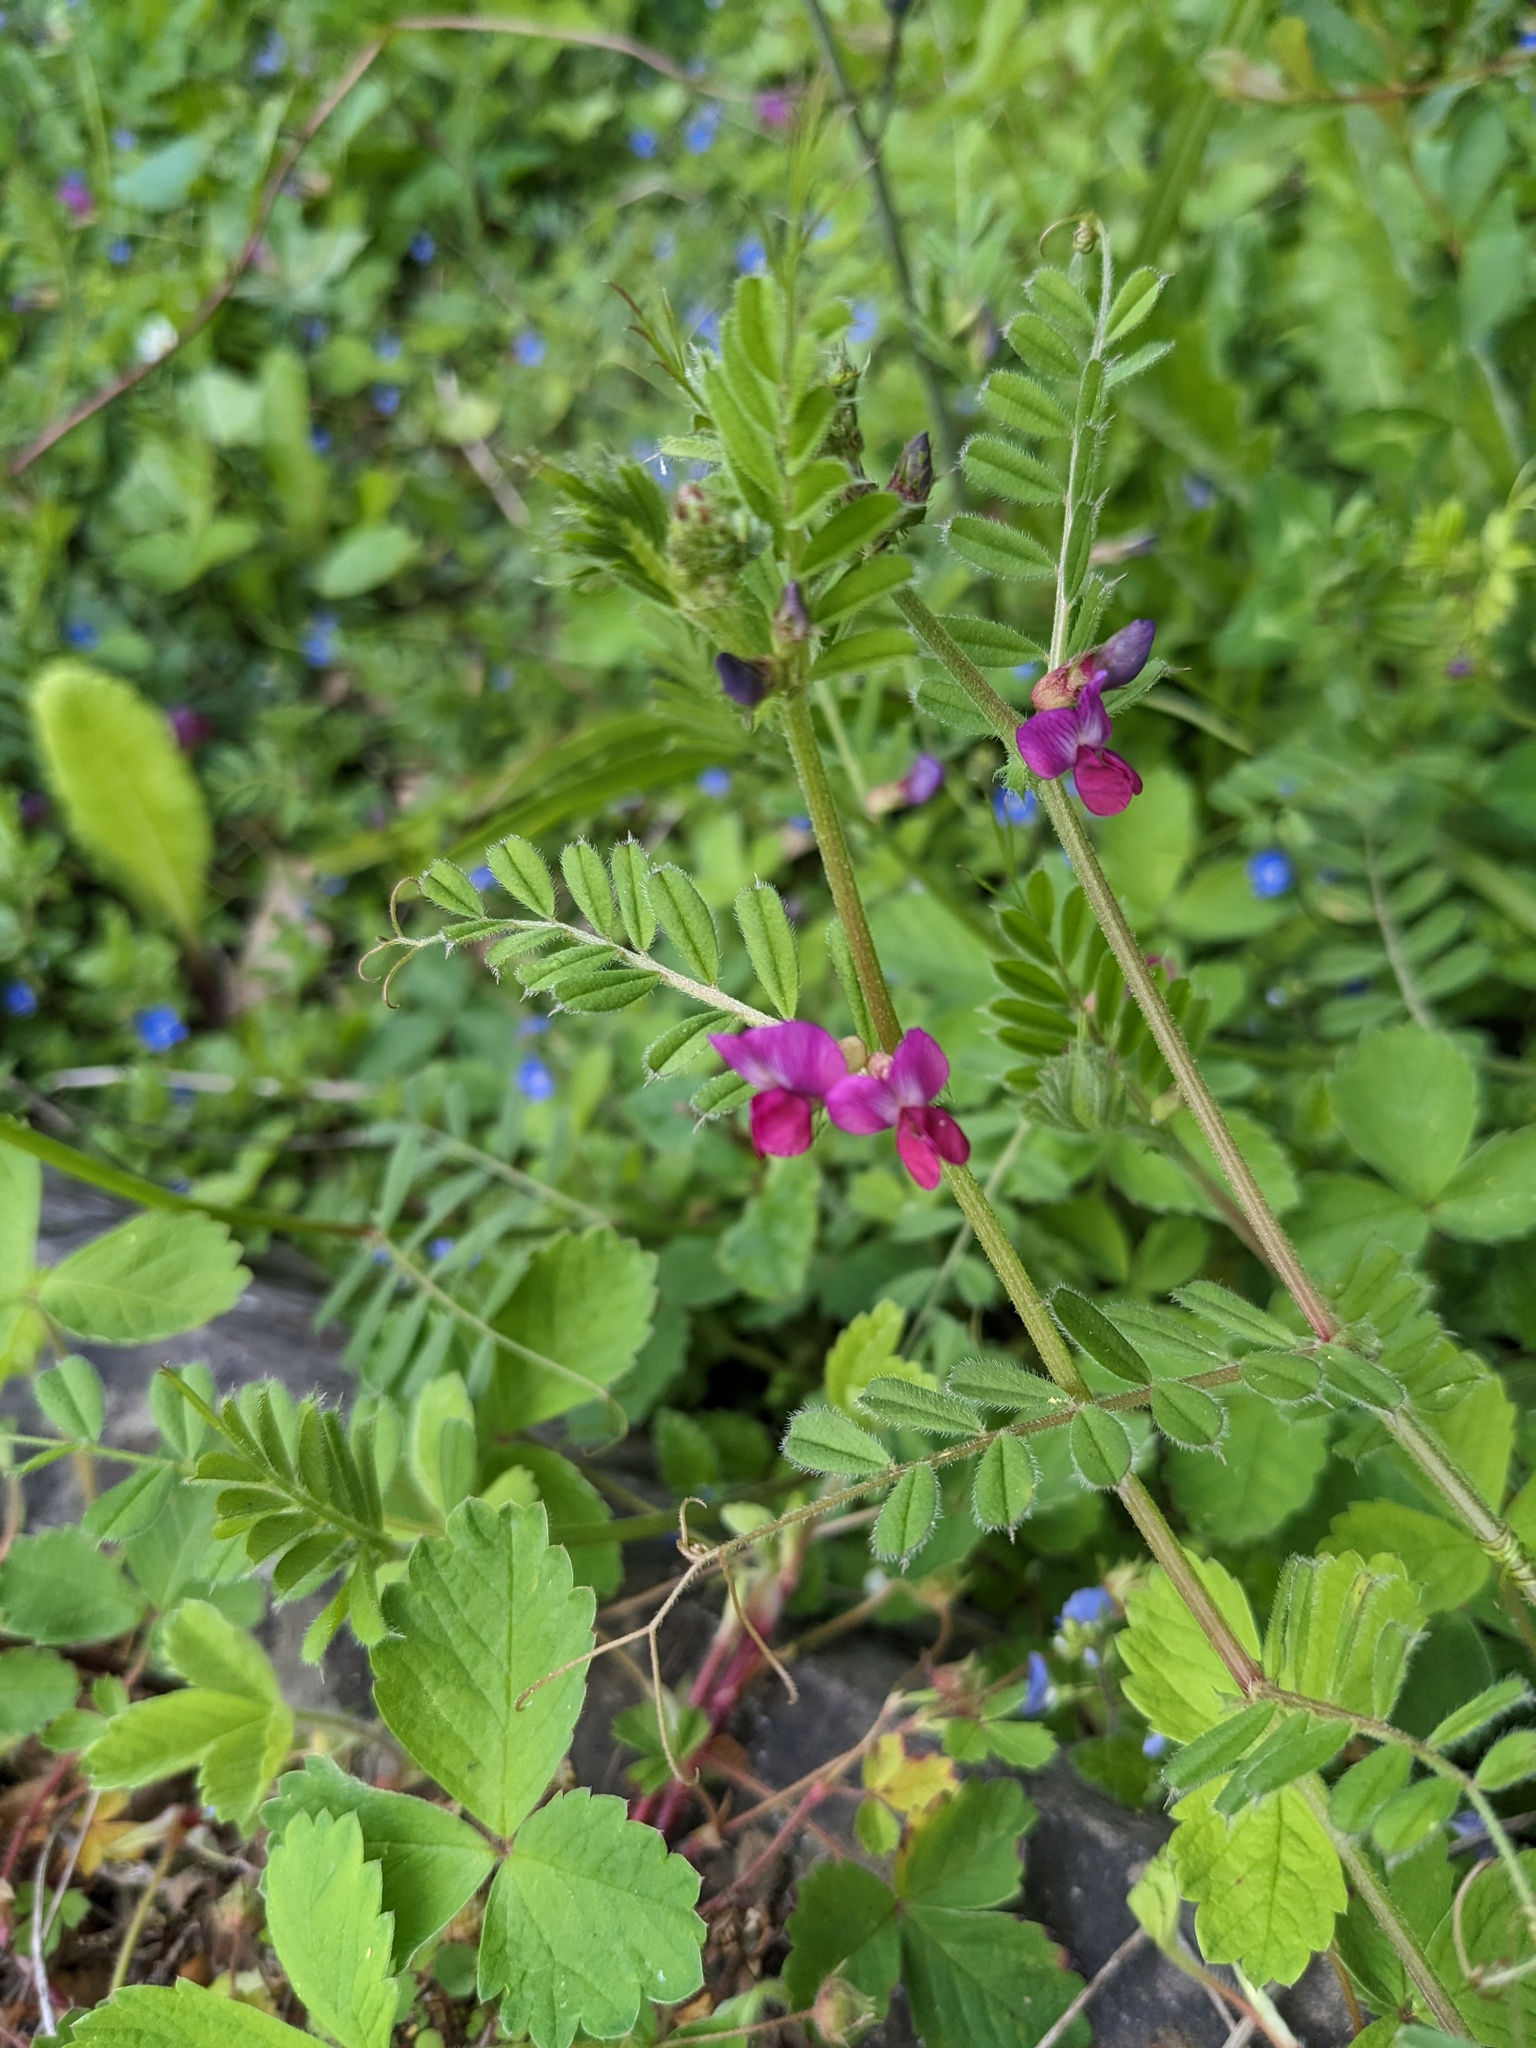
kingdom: Plantae
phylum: Tracheophyta
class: Magnoliopsida
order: Fabales
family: Fabaceae
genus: Vicia
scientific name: Vicia sativa
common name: Garden vetch
